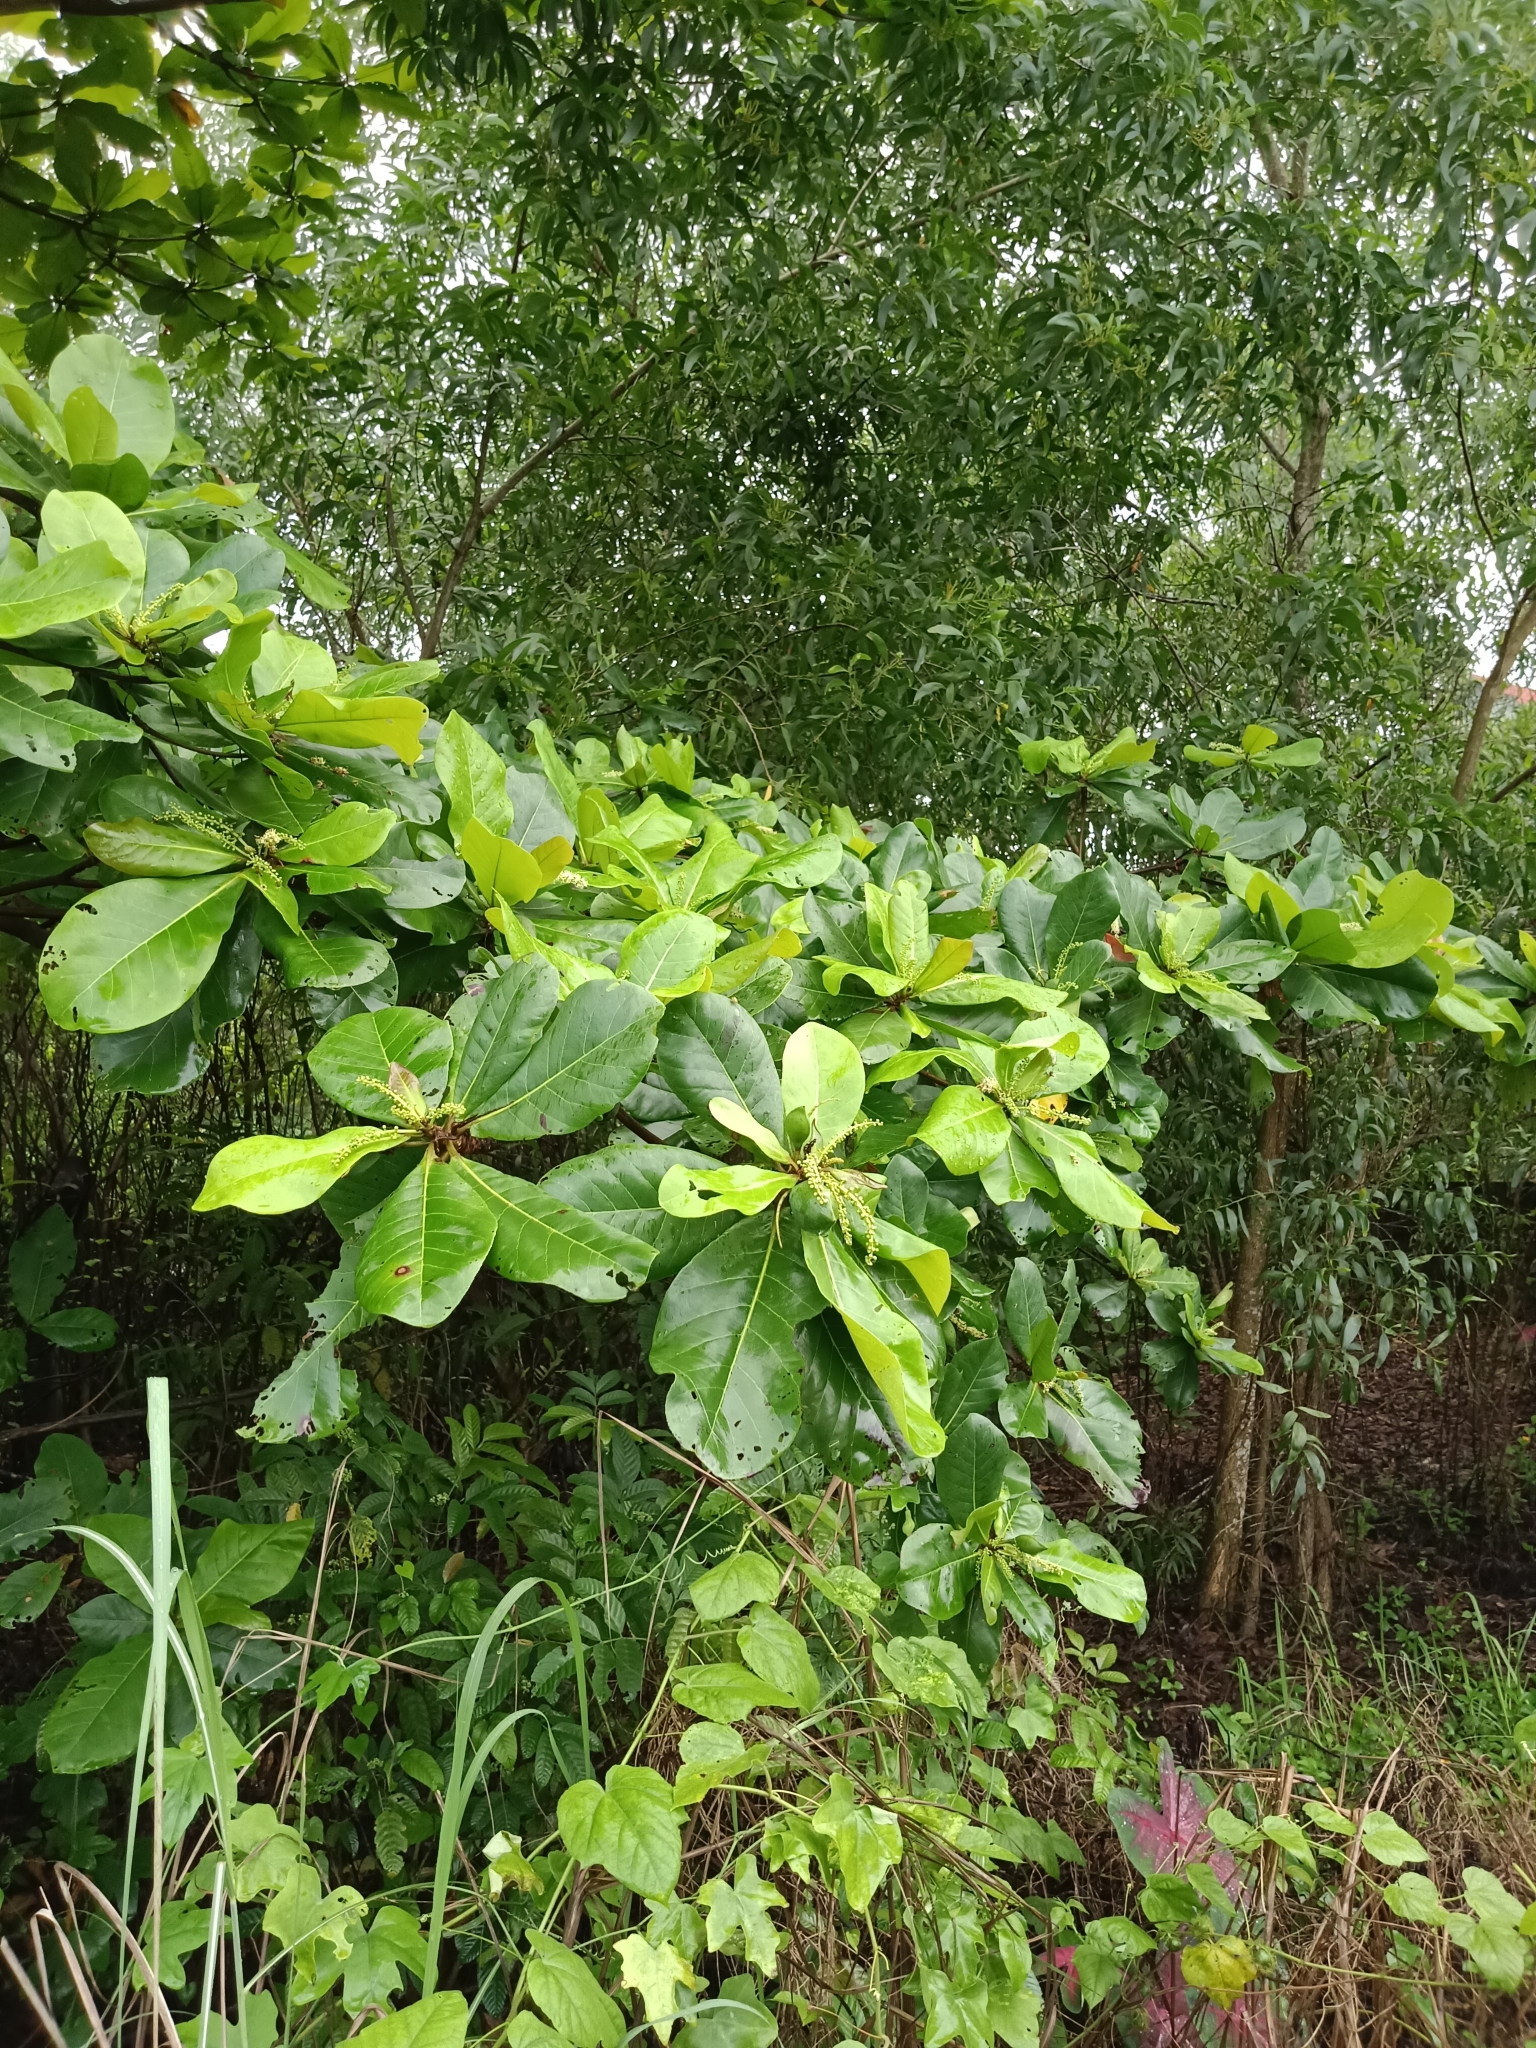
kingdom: Plantae
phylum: Tracheophyta
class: Magnoliopsida
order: Myrtales
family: Combretaceae
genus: Terminalia
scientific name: Terminalia catappa
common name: Tropical almond
